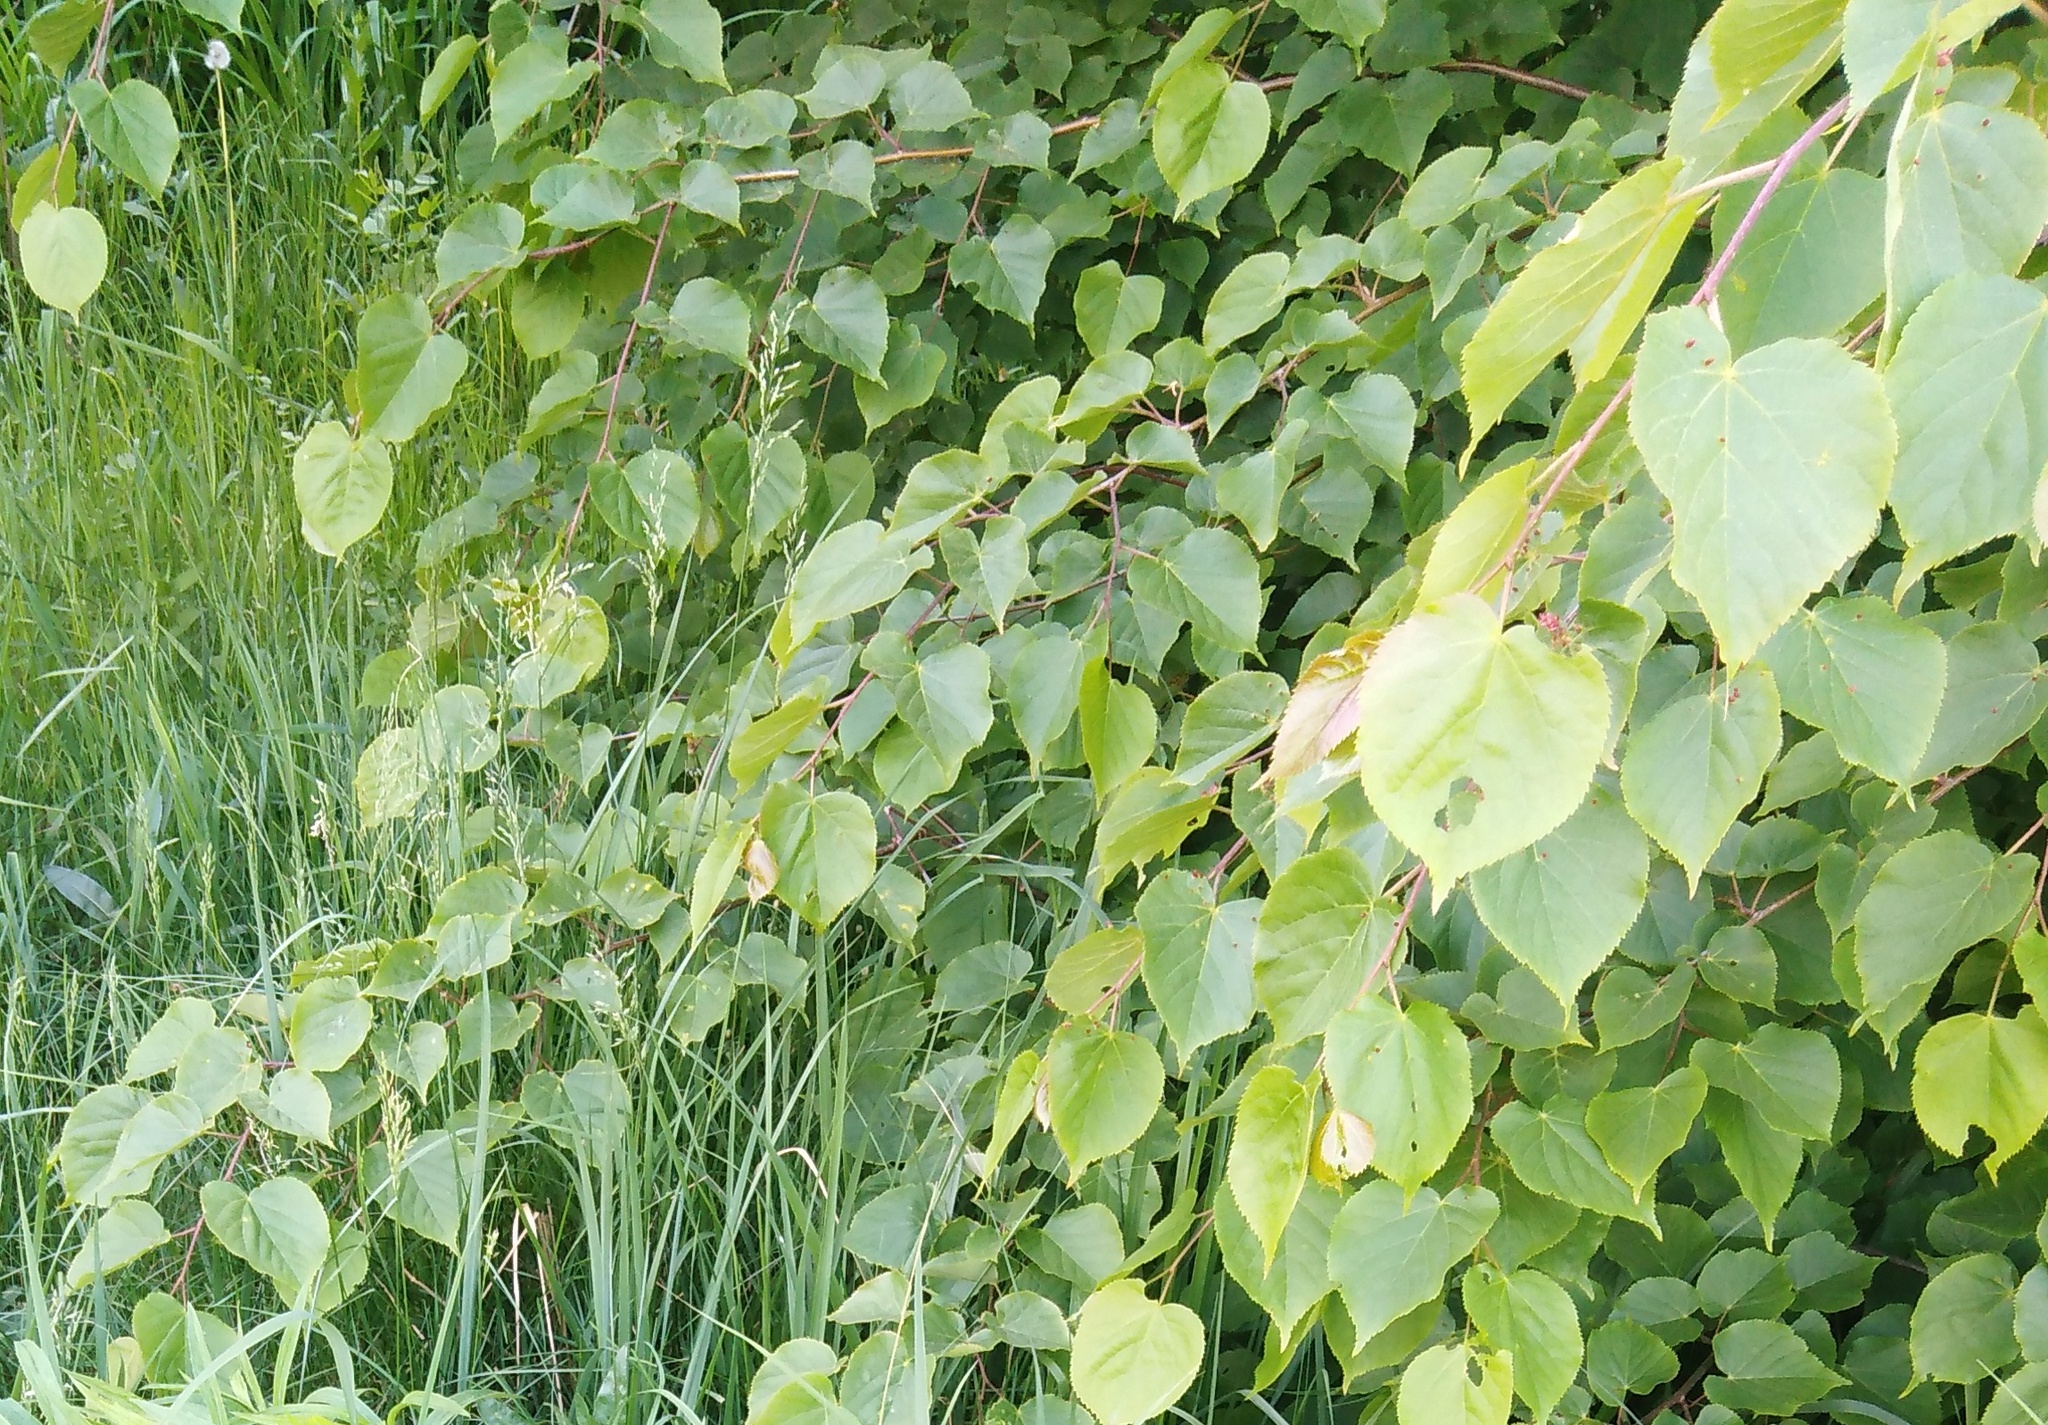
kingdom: Plantae
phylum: Tracheophyta
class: Magnoliopsida
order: Malvales
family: Malvaceae
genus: Tilia
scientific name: Tilia cordata
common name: Small-leaved lime
